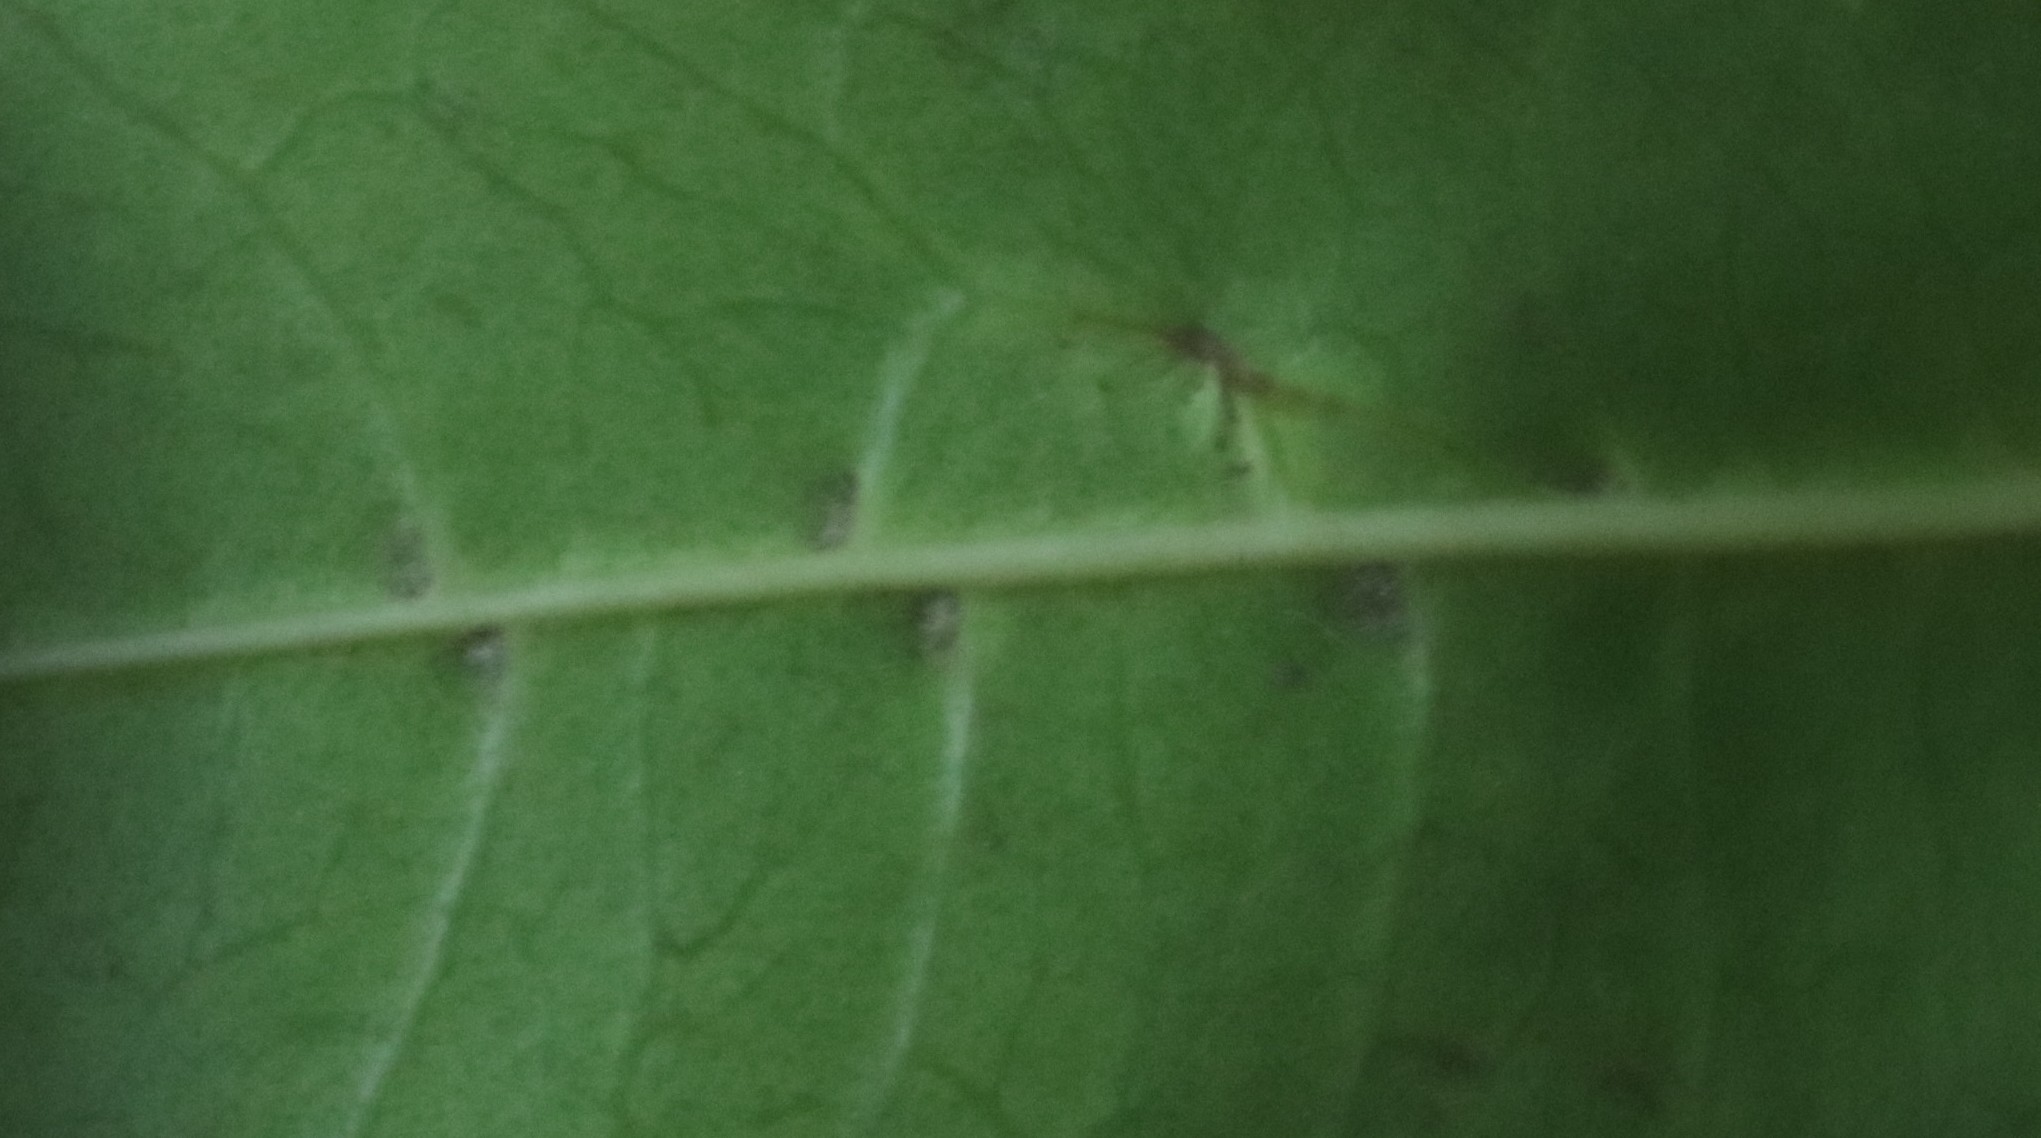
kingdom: Plantae
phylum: Tracheophyta
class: Magnoliopsida
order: Lamiales
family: Oleaceae
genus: Noronhia
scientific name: Noronhia foveolata
